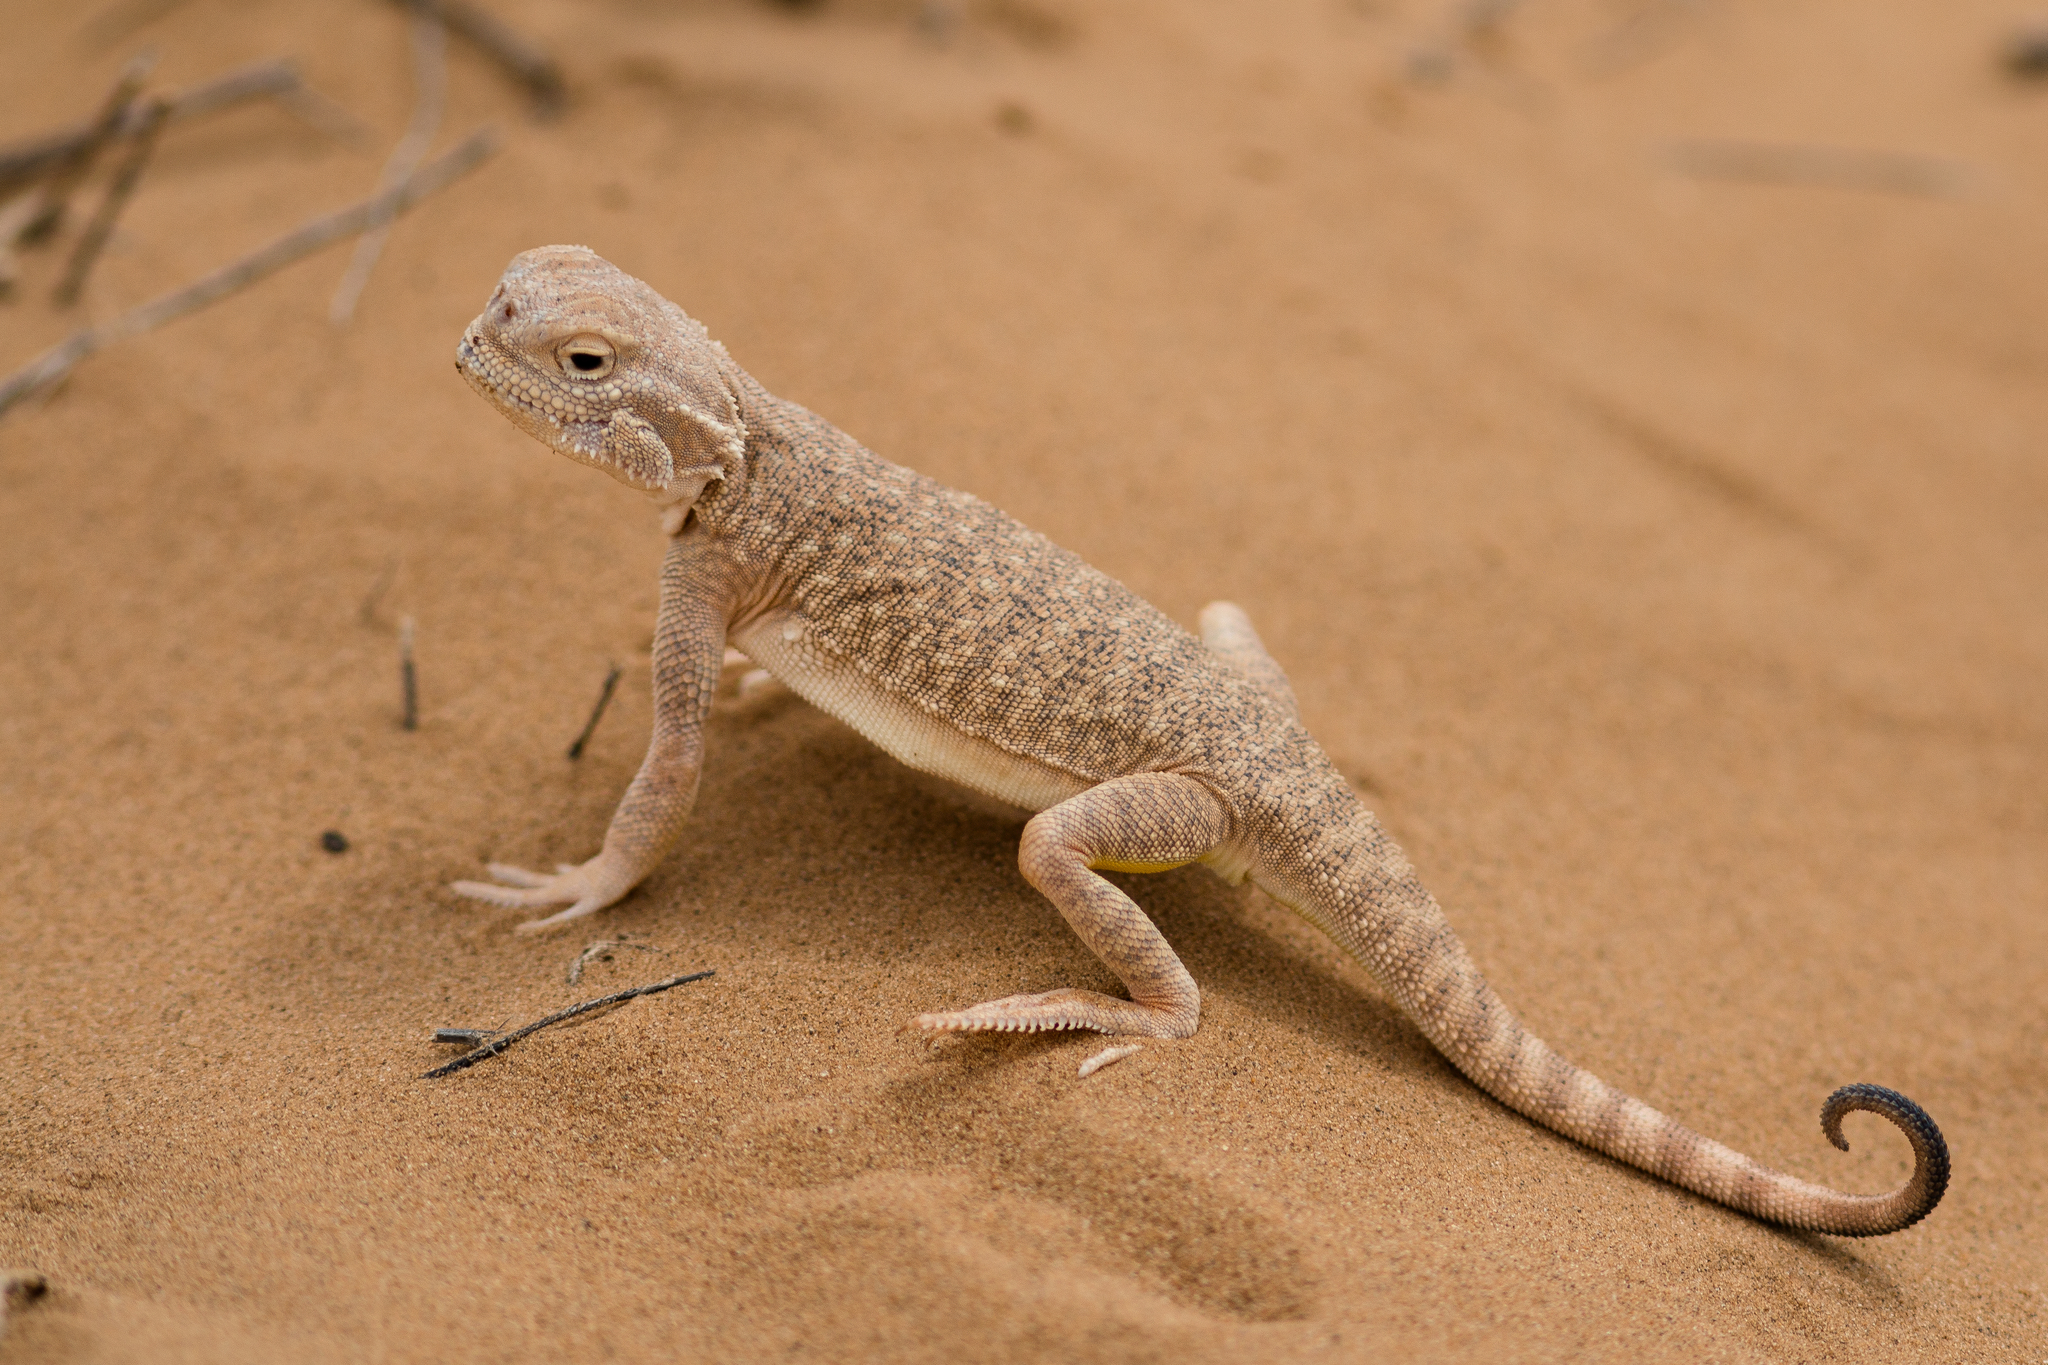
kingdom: Animalia
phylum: Chordata
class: Squamata
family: Agamidae
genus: Phrynocephalus
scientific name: Phrynocephalus mystaceus
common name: Secret toadhead agama
